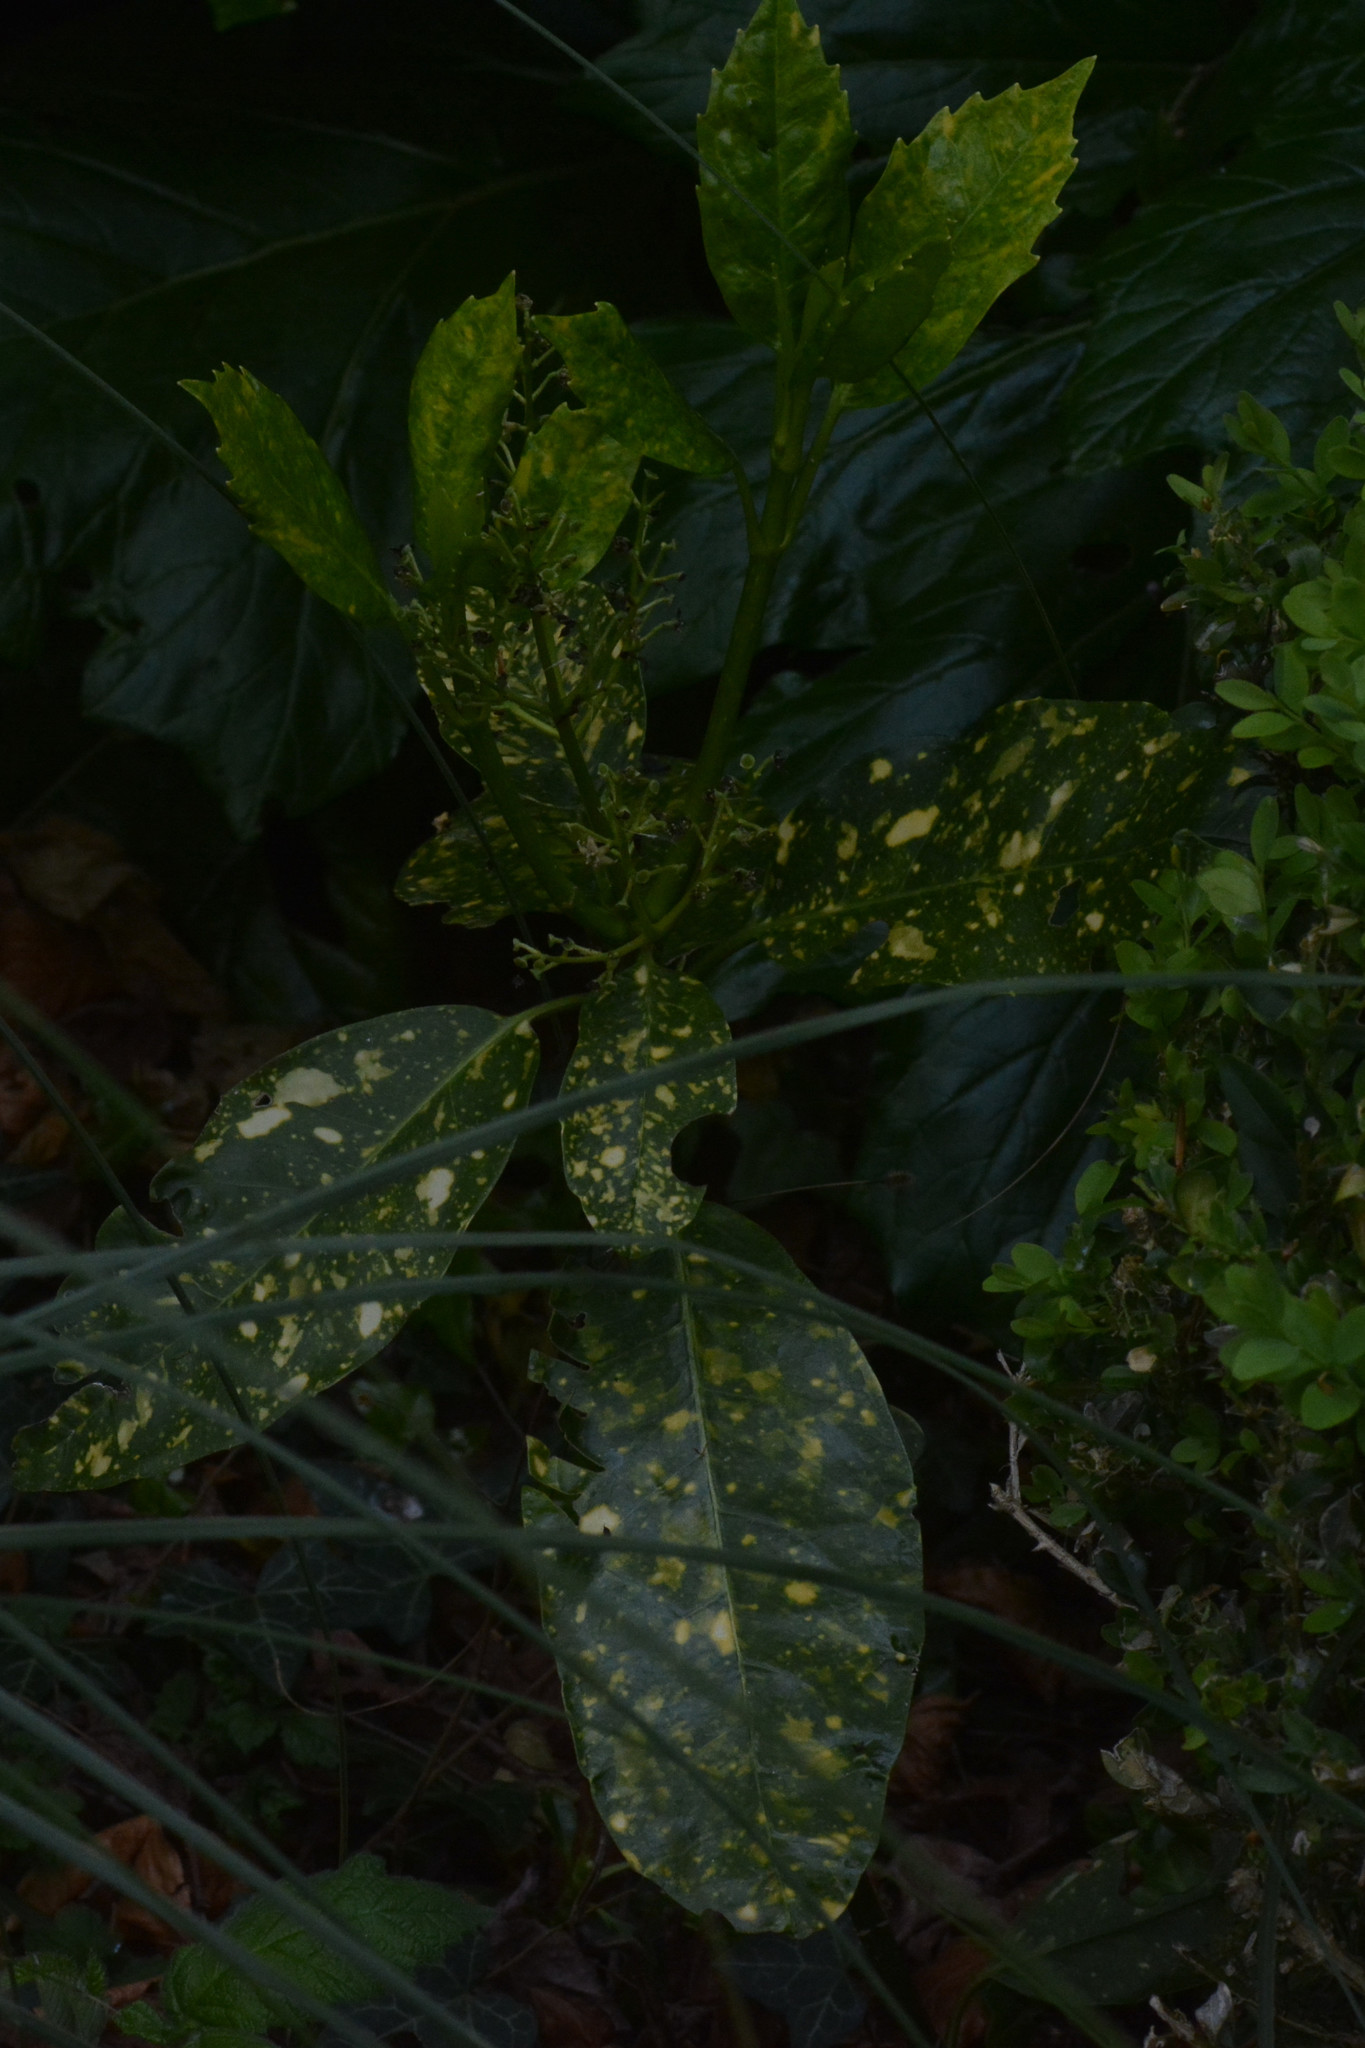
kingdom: Plantae
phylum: Tracheophyta
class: Magnoliopsida
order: Garryales
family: Garryaceae
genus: Aucuba
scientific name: Aucuba japonica
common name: Spotted-laurel
